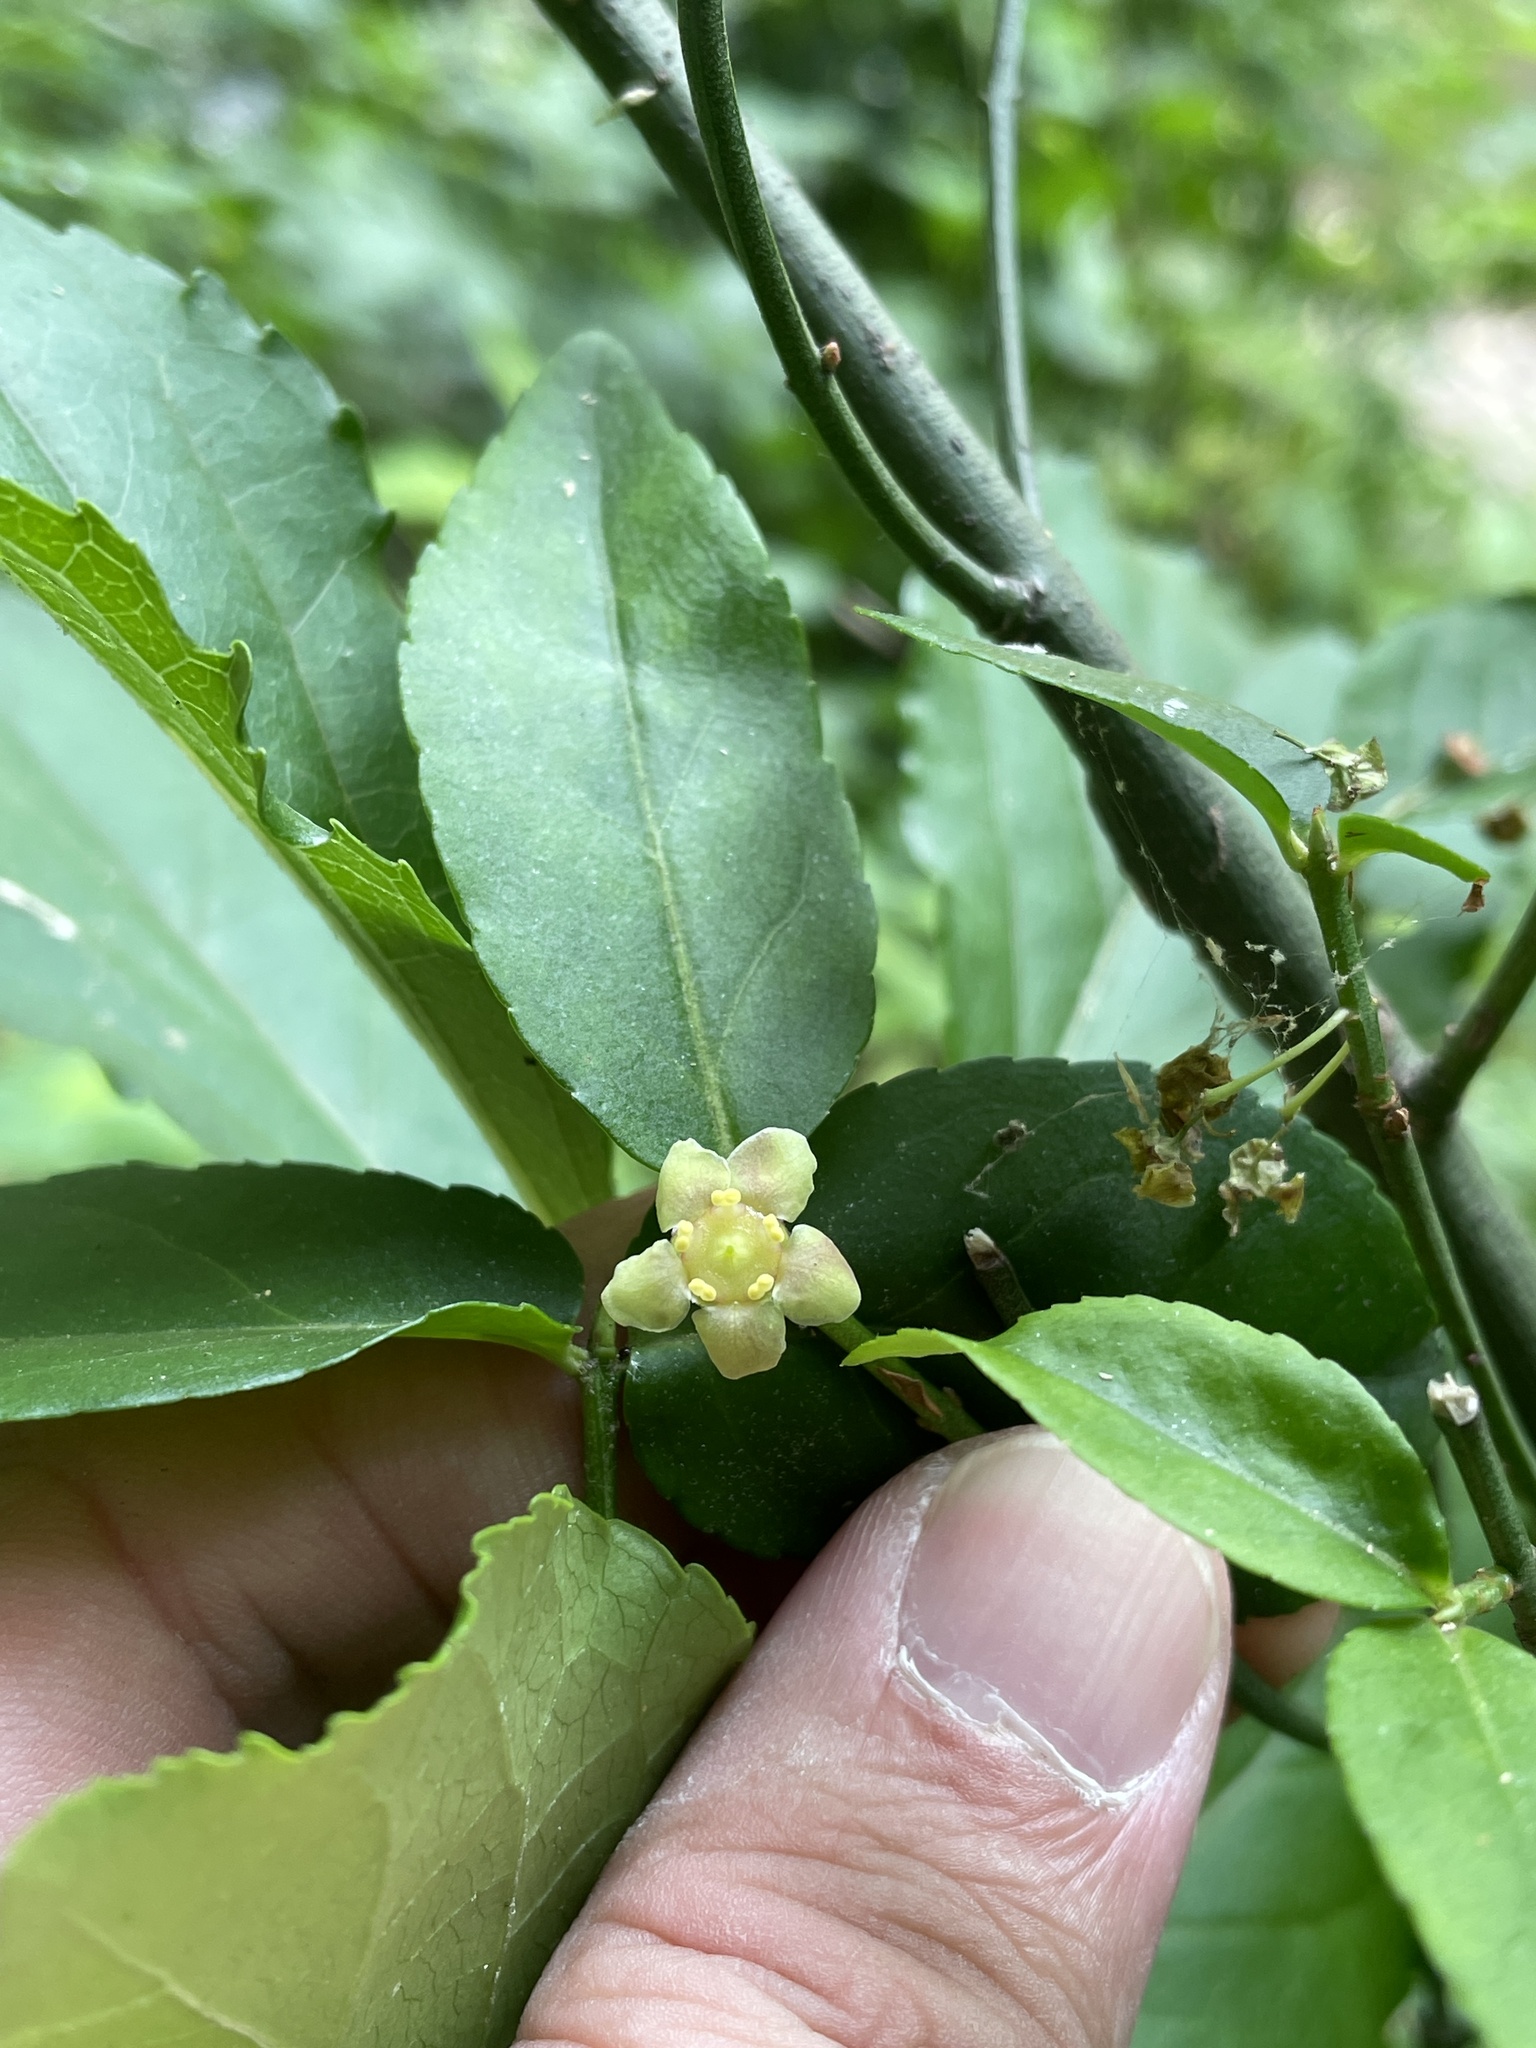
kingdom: Plantae
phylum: Tracheophyta
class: Magnoliopsida
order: Celastrales
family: Celastraceae
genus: Euonymus
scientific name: Euonymus americanus
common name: Bursting-heart
